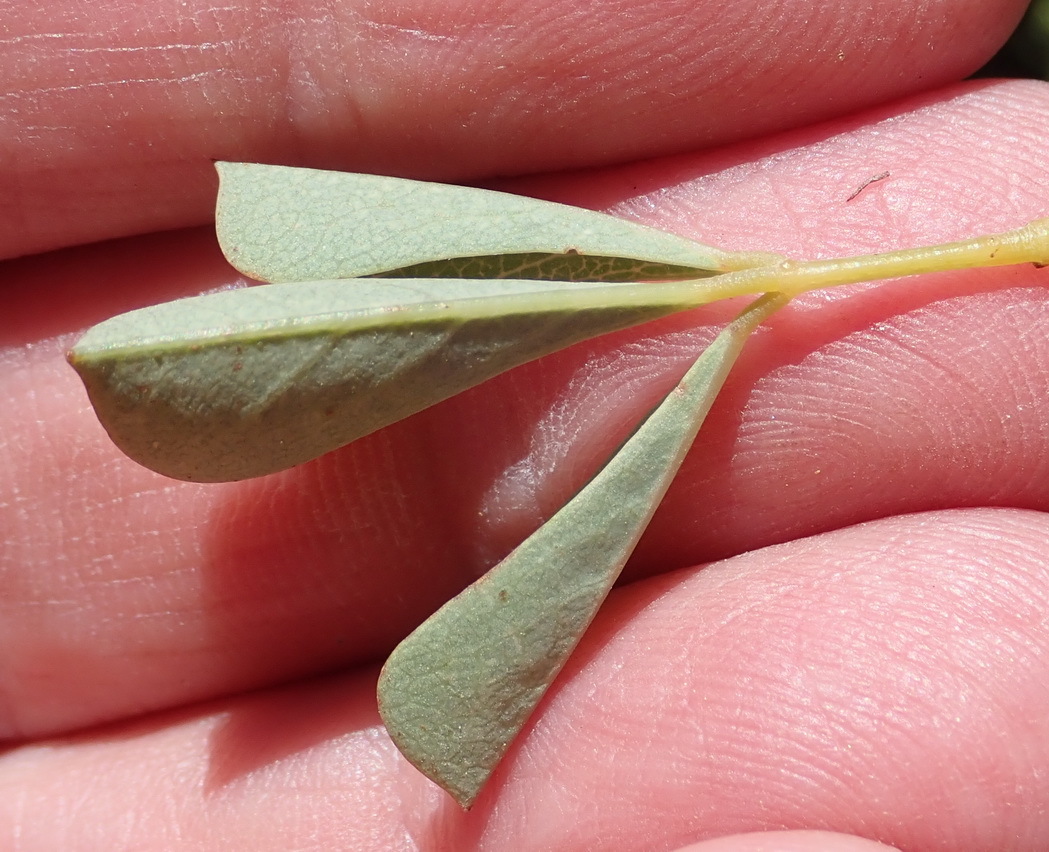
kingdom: Plantae
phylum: Tracheophyta
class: Magnoliopsida
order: Fabales
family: Fabaceae
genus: Hypocalyptus
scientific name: Hypocalyptus sophoroides
